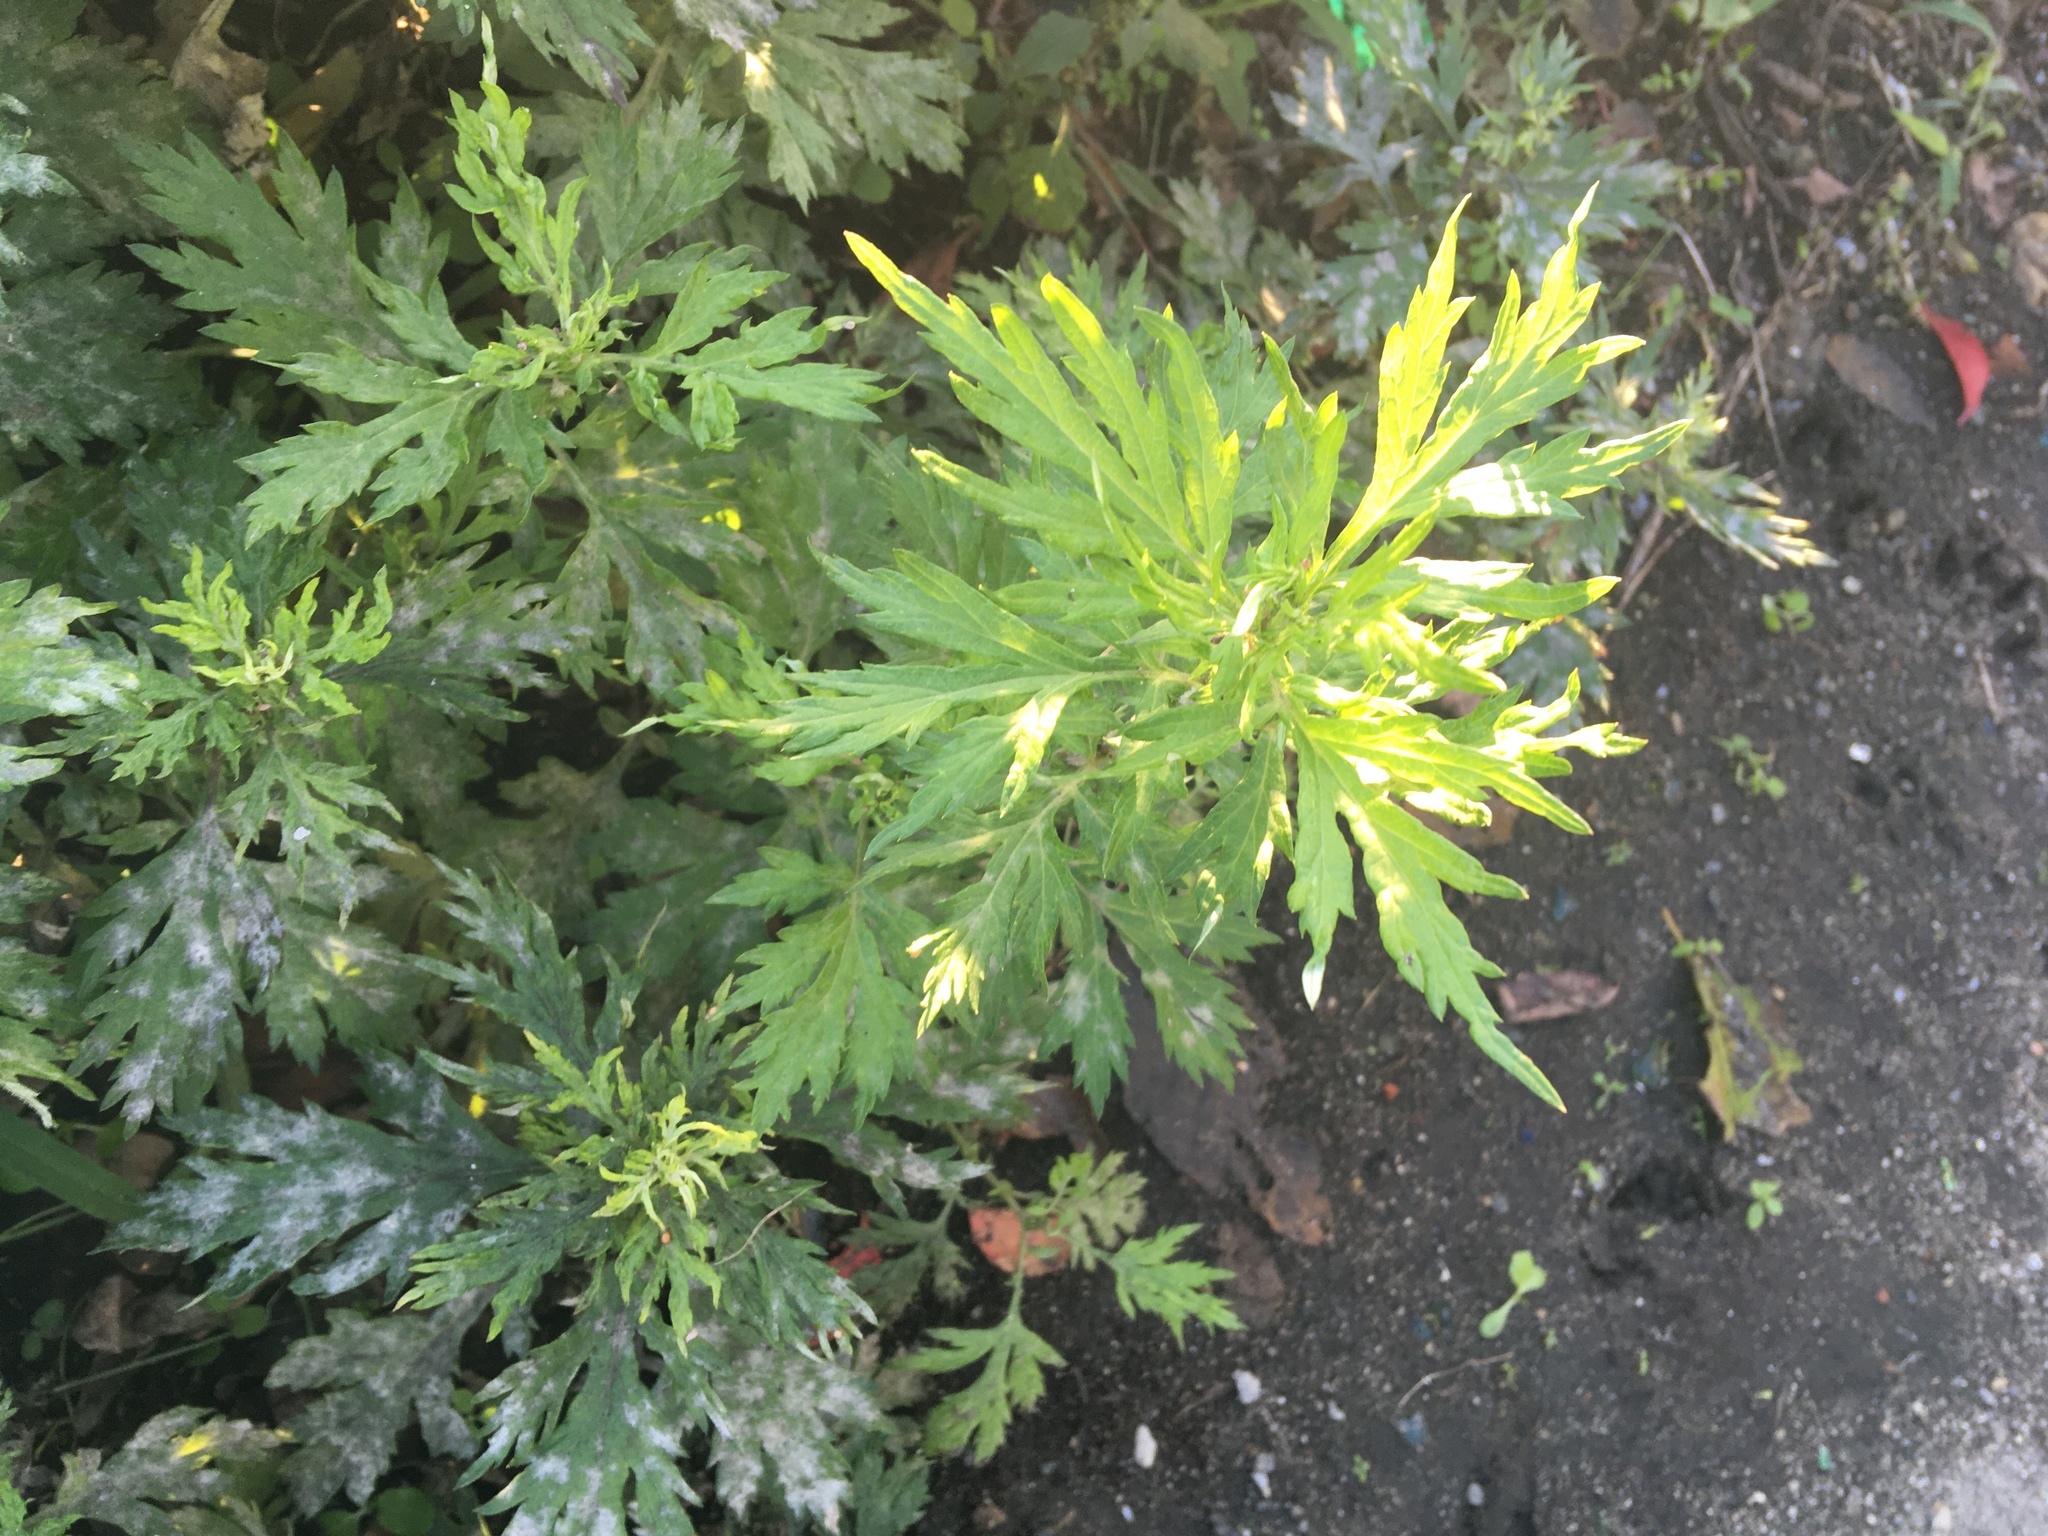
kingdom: Plantae
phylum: Tracheophyta
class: Magnoliopsida
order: Asterales
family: Asteraceae
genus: Artemisia
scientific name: Artemisia vulgaris
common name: Mugwort
